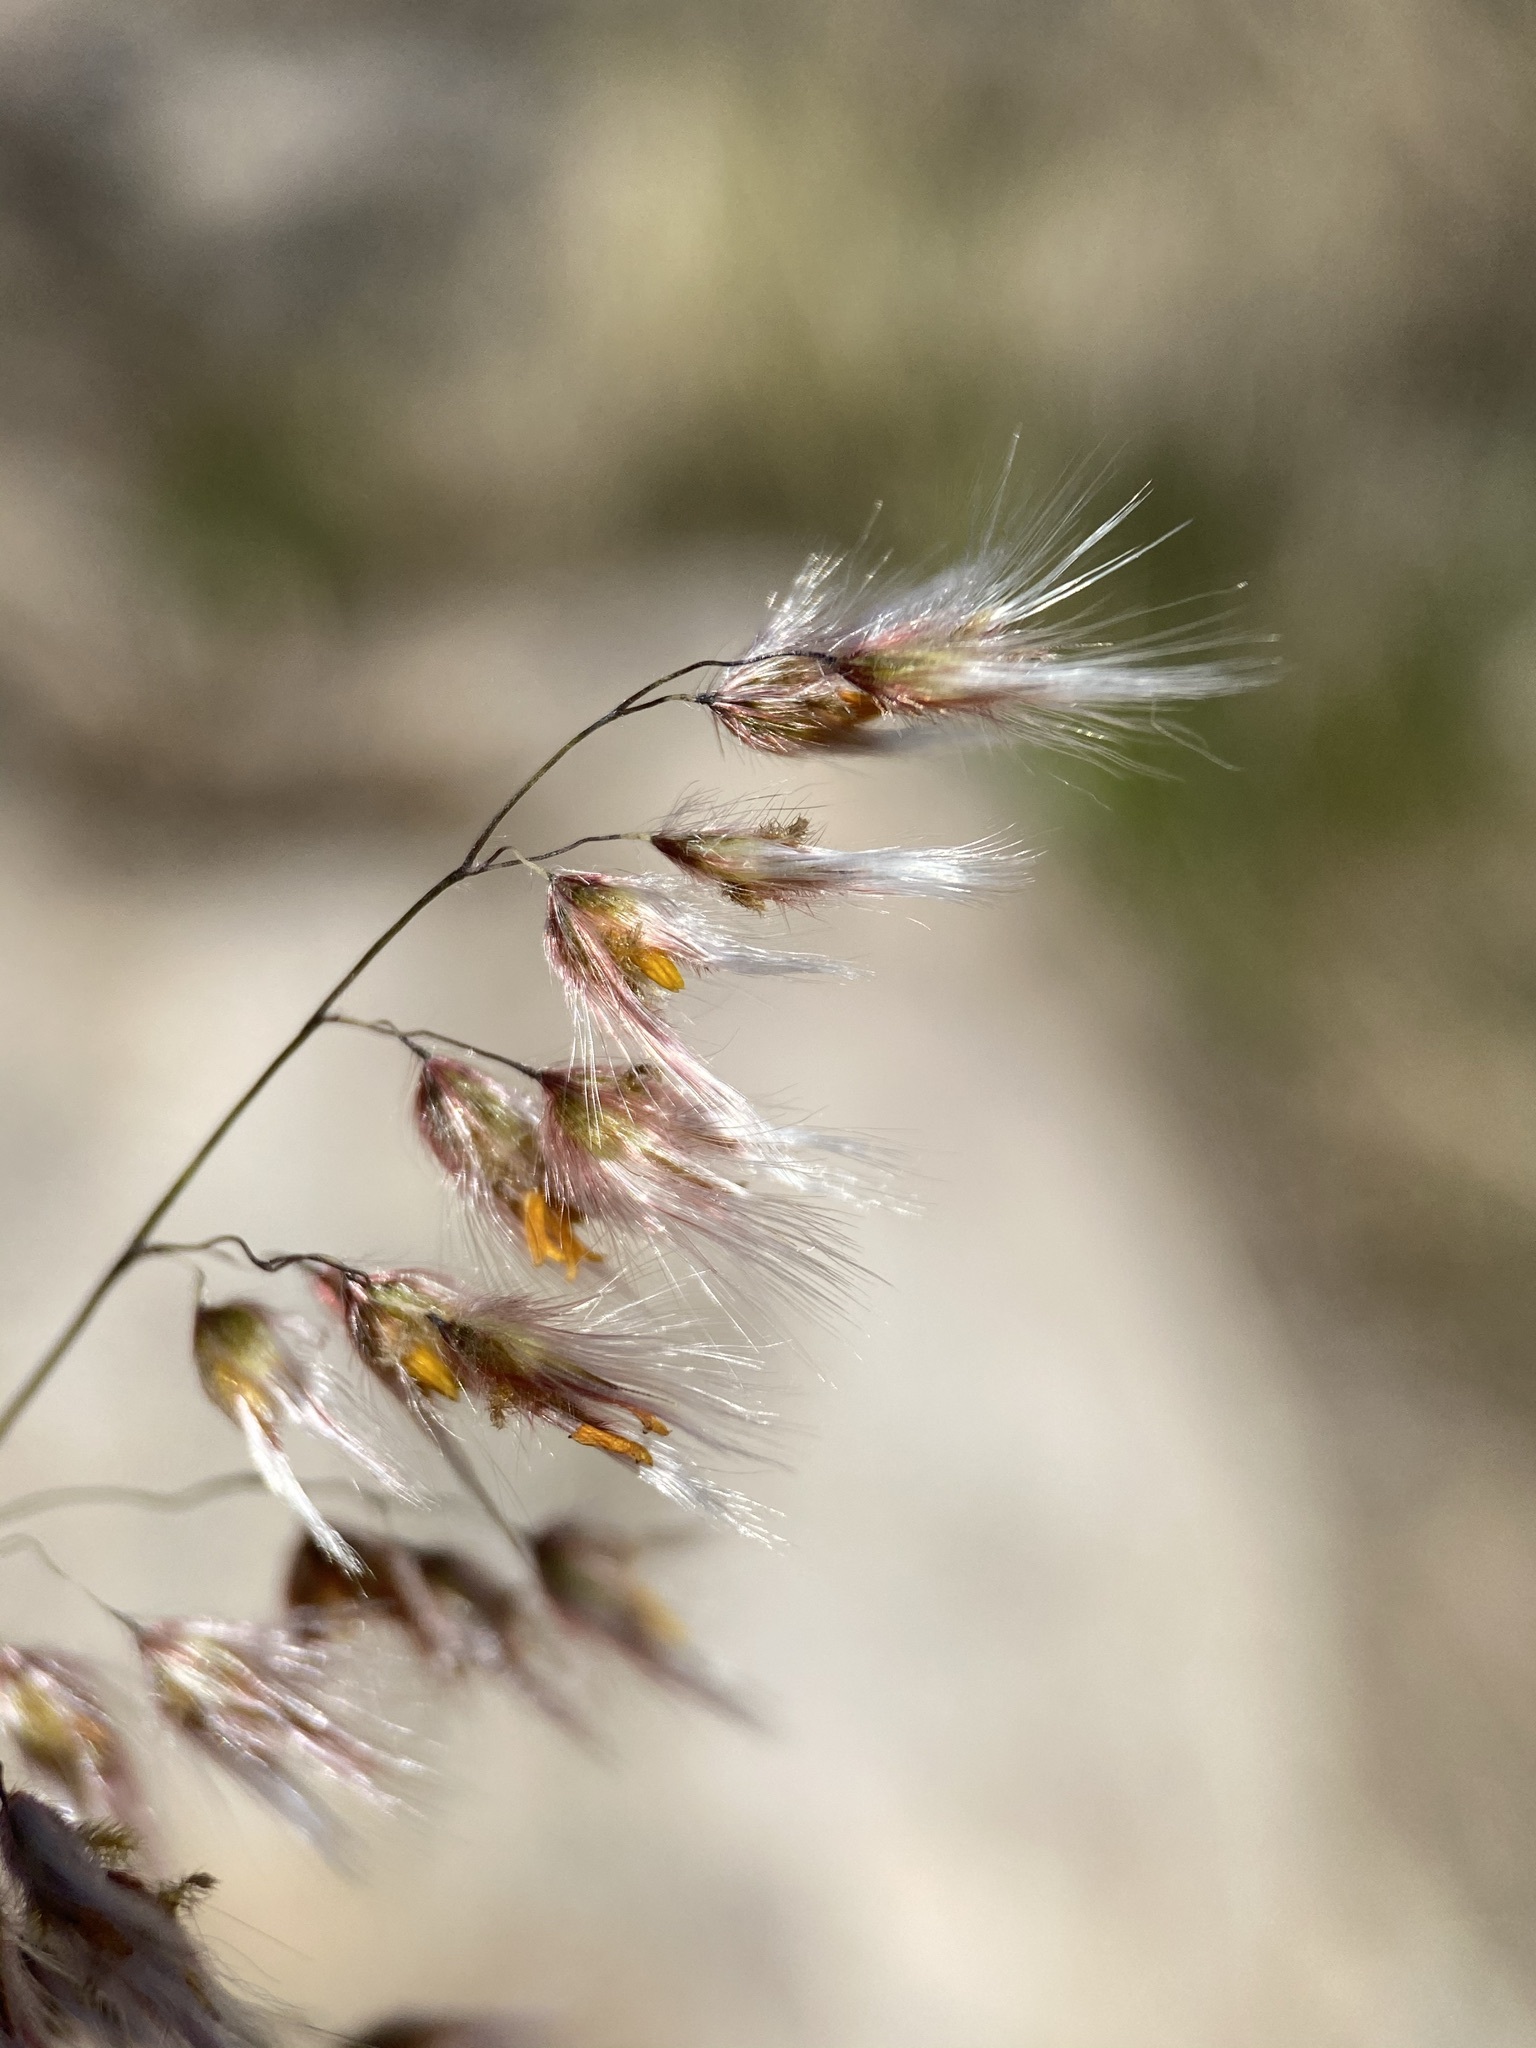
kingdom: Plantae
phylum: Tracheophyta
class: Liliopsida
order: Poales
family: Poaceae
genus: Melinis
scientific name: Melinis repens
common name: Rose natal grass
